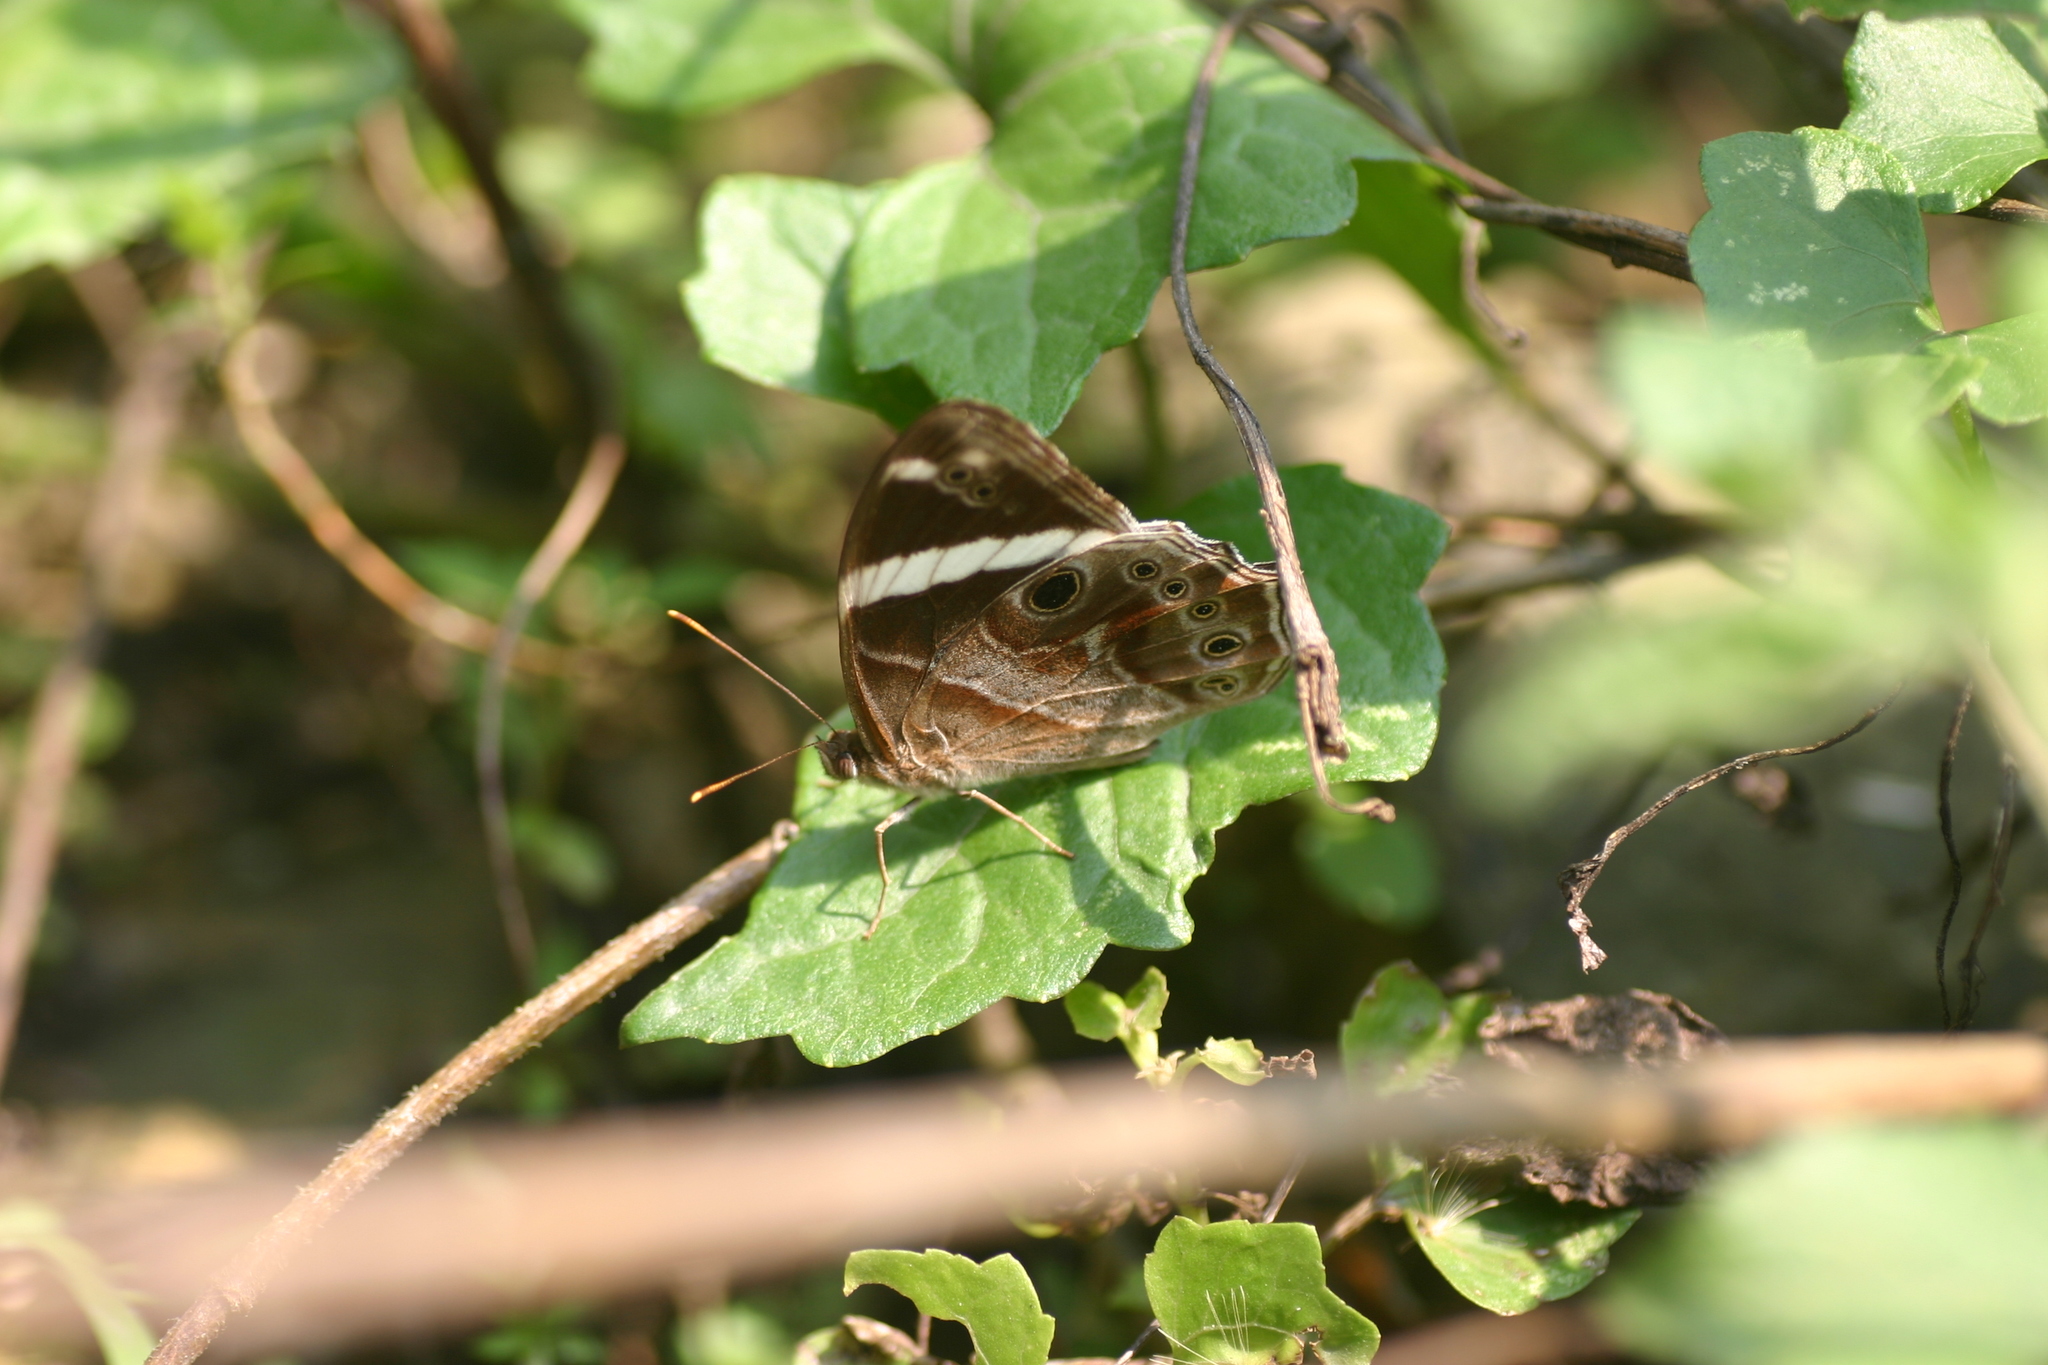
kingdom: Animalia
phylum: Arthropoda
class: Insecta
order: Lepidoptera
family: Nymphalidae
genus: Lethe
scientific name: Lethe confusa
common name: Banded treebrown
